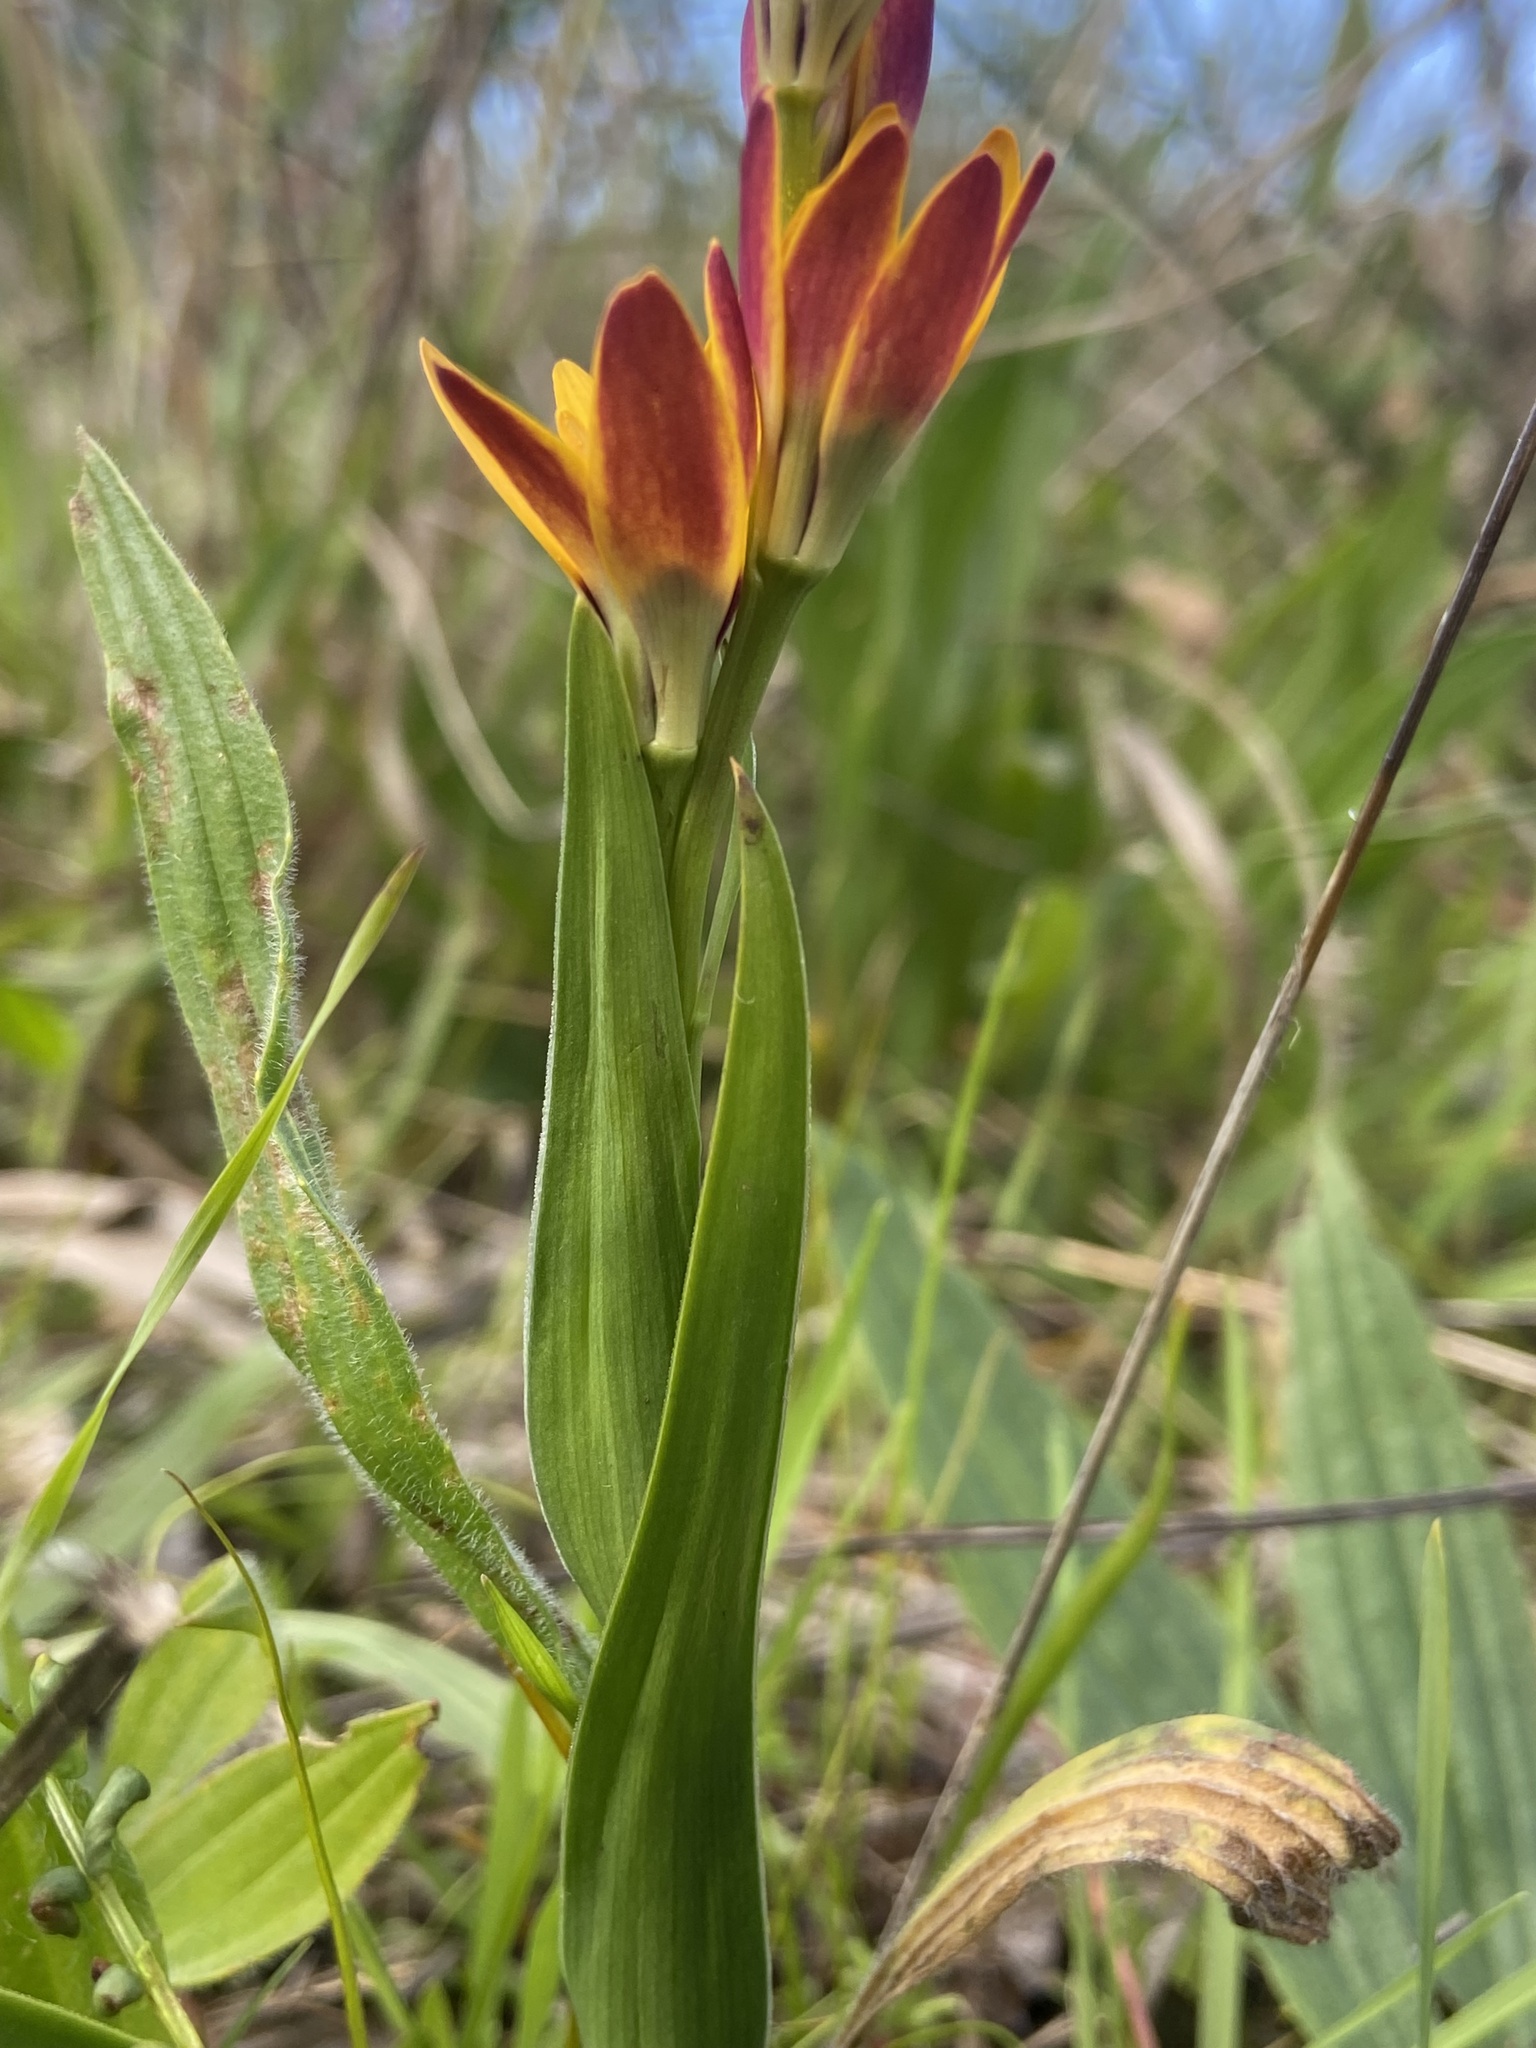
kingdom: Plantae
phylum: Tracheophyta
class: Liliopsida
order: Liliales
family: Colchicaceae
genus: Baeometra
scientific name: Baeometra uniflora
